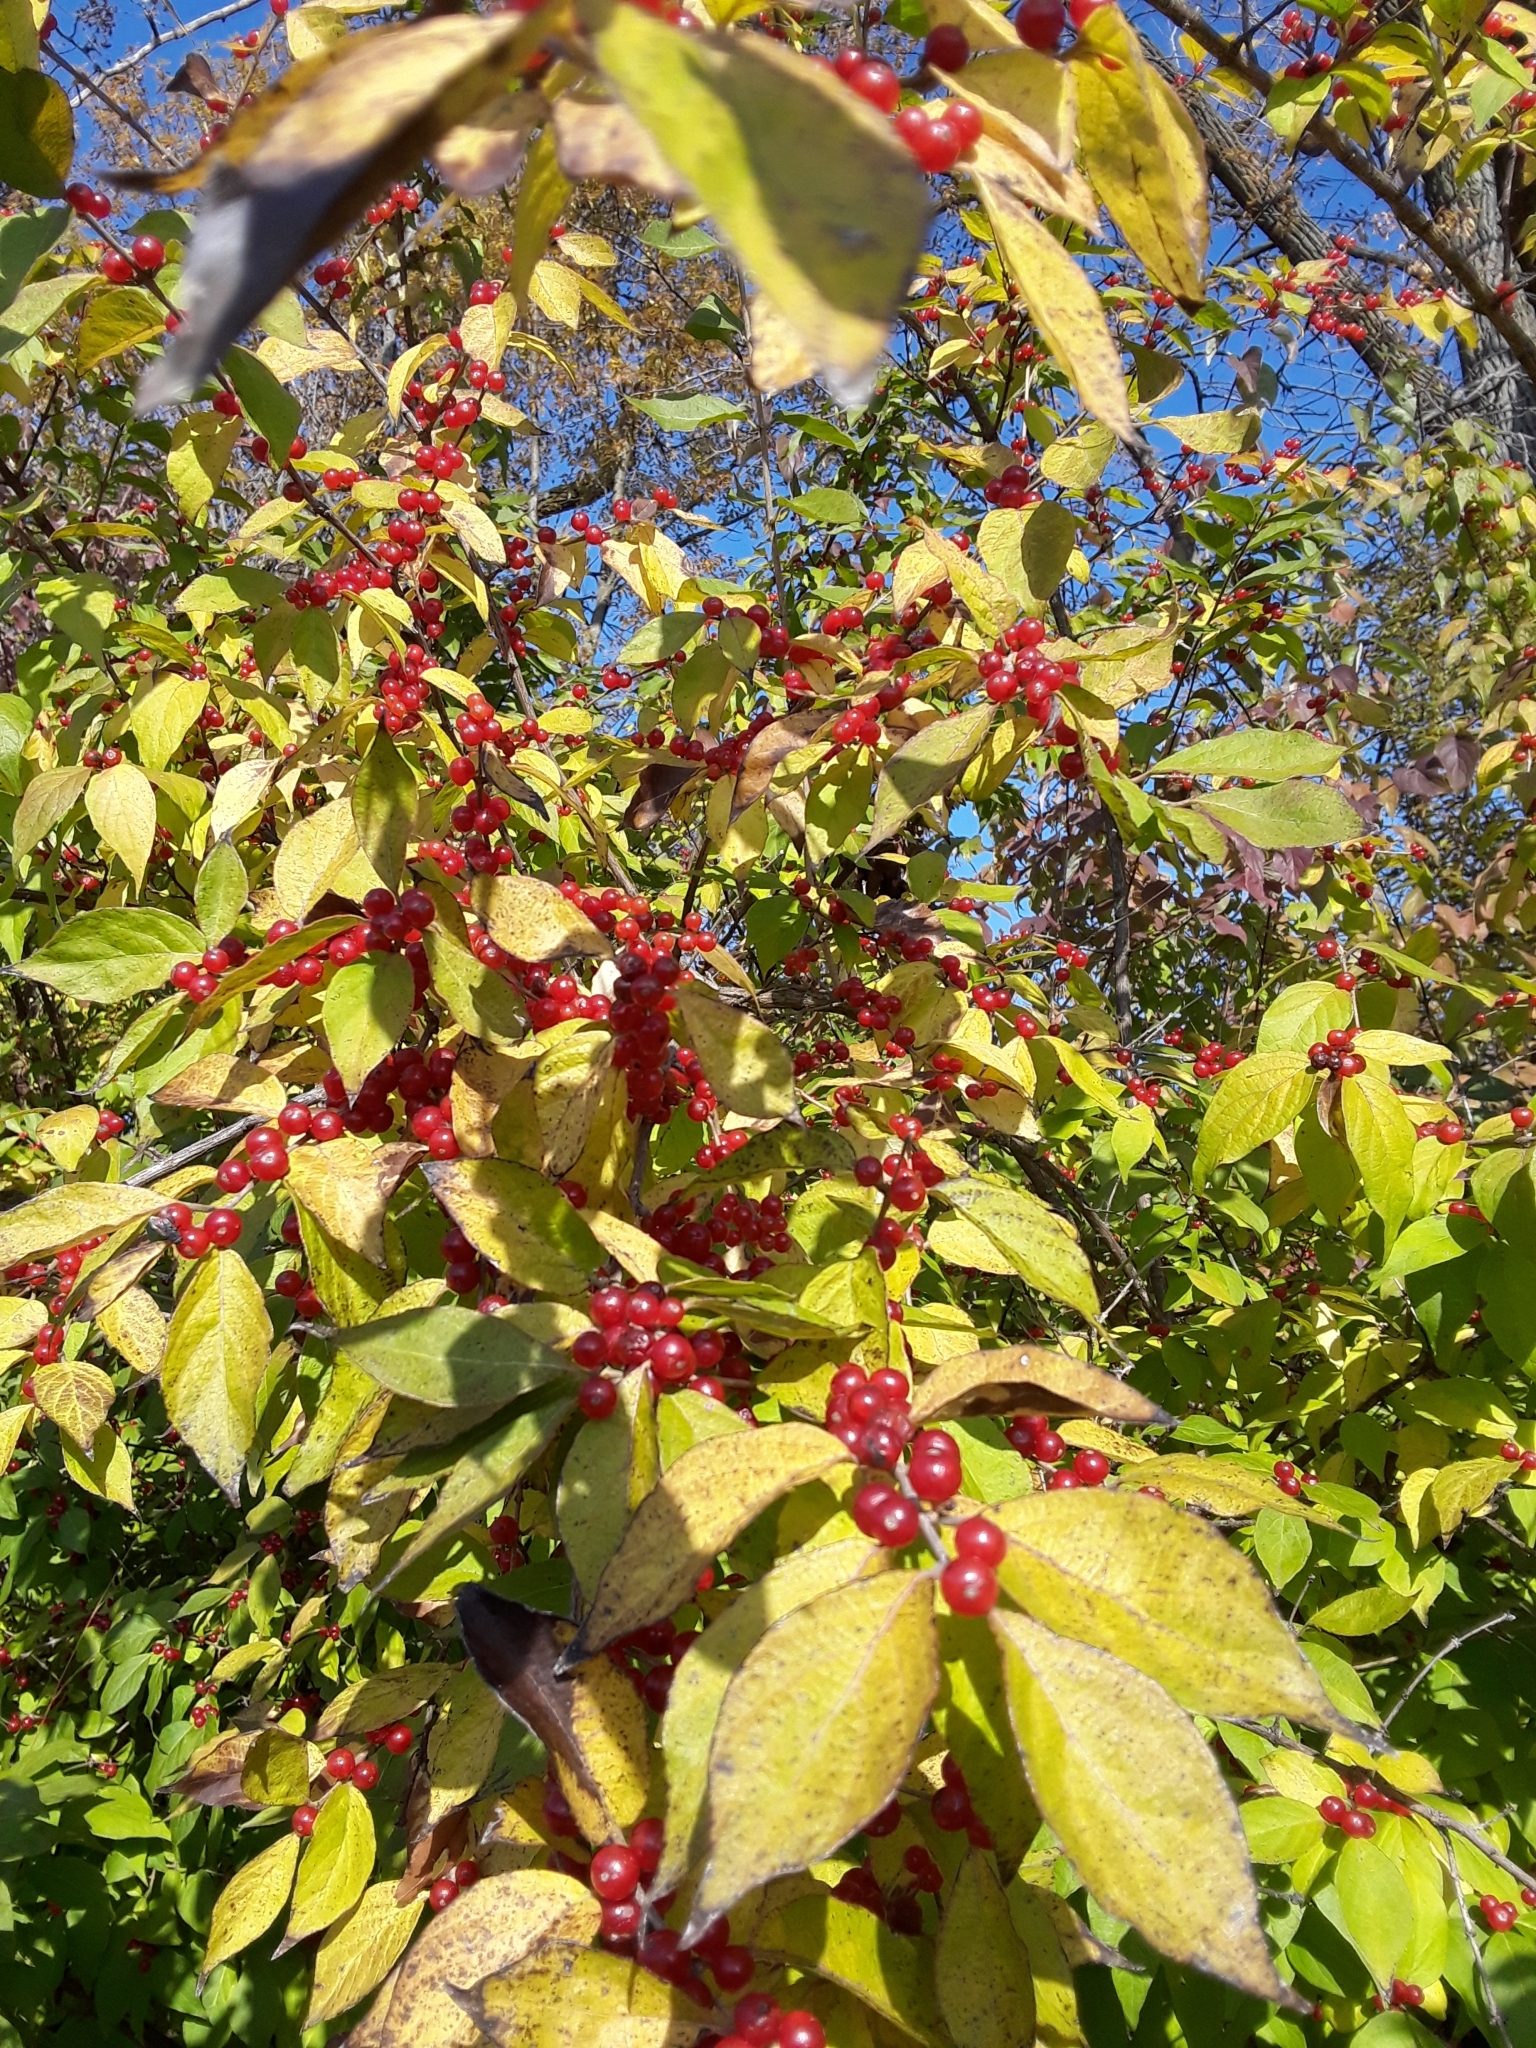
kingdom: Plantae
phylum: Tracheophyta
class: Magnoliopsida
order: Dipsacales
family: Caprifoliaceae
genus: Lonicera
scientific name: Lonicera maackii
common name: Amur honeysuckle
